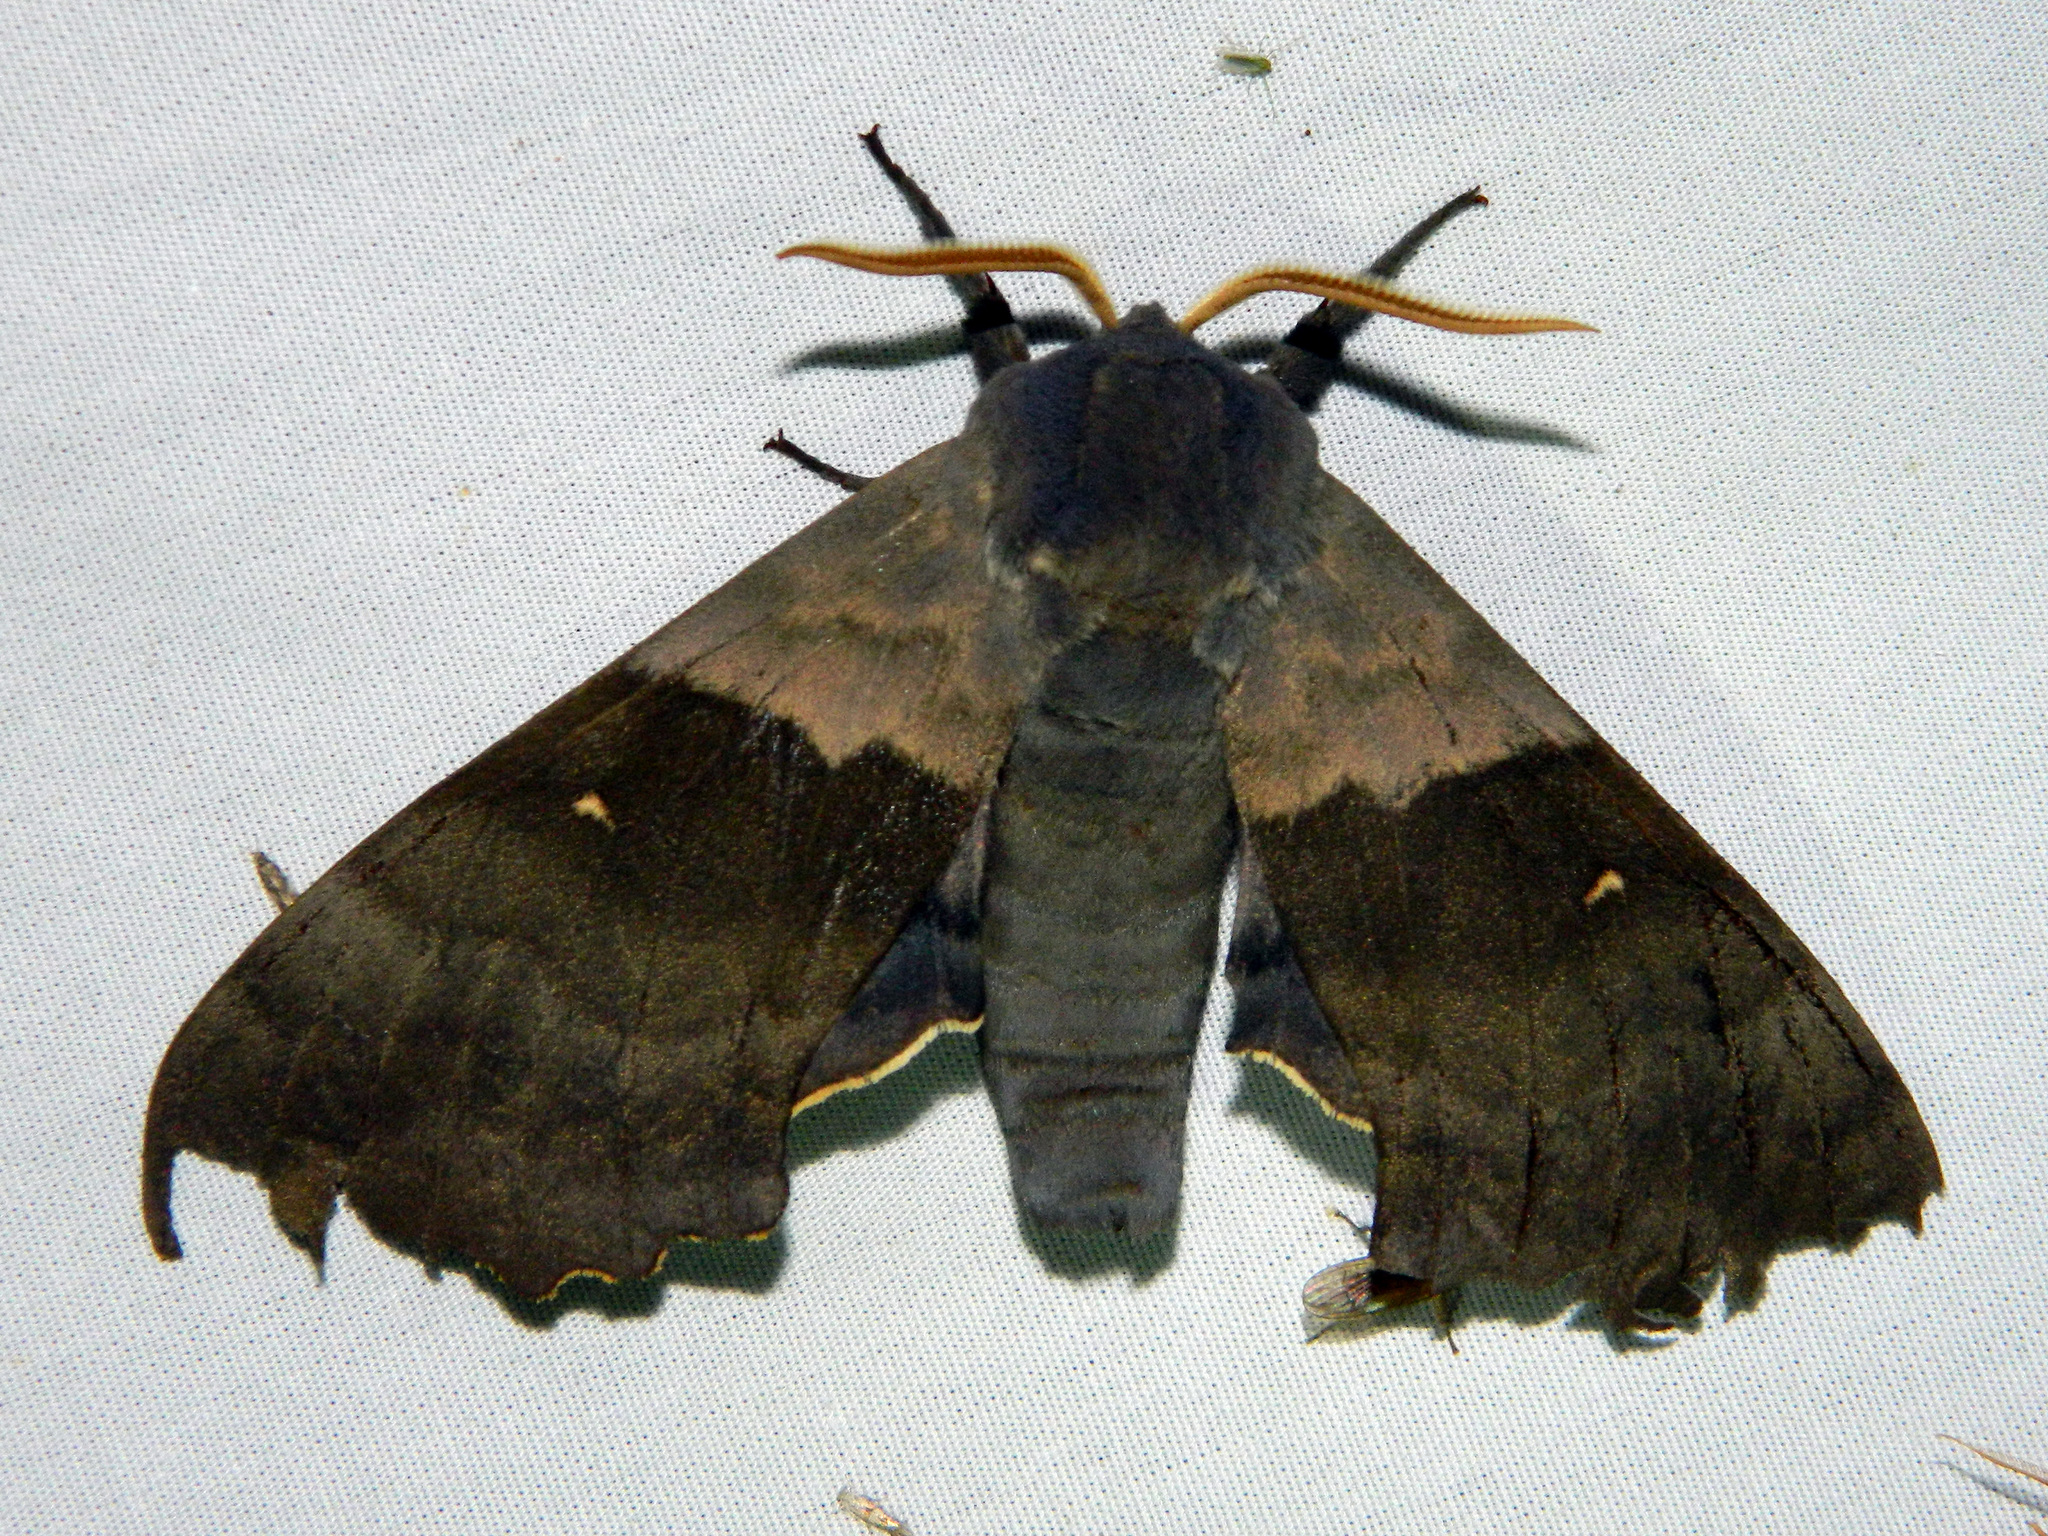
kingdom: Animalia
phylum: Arthropoda
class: Insecta
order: Lepidoptera
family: Sphingidae
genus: Pachysphinx
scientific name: Pachysphinx modesta
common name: Big poplar sphinx
